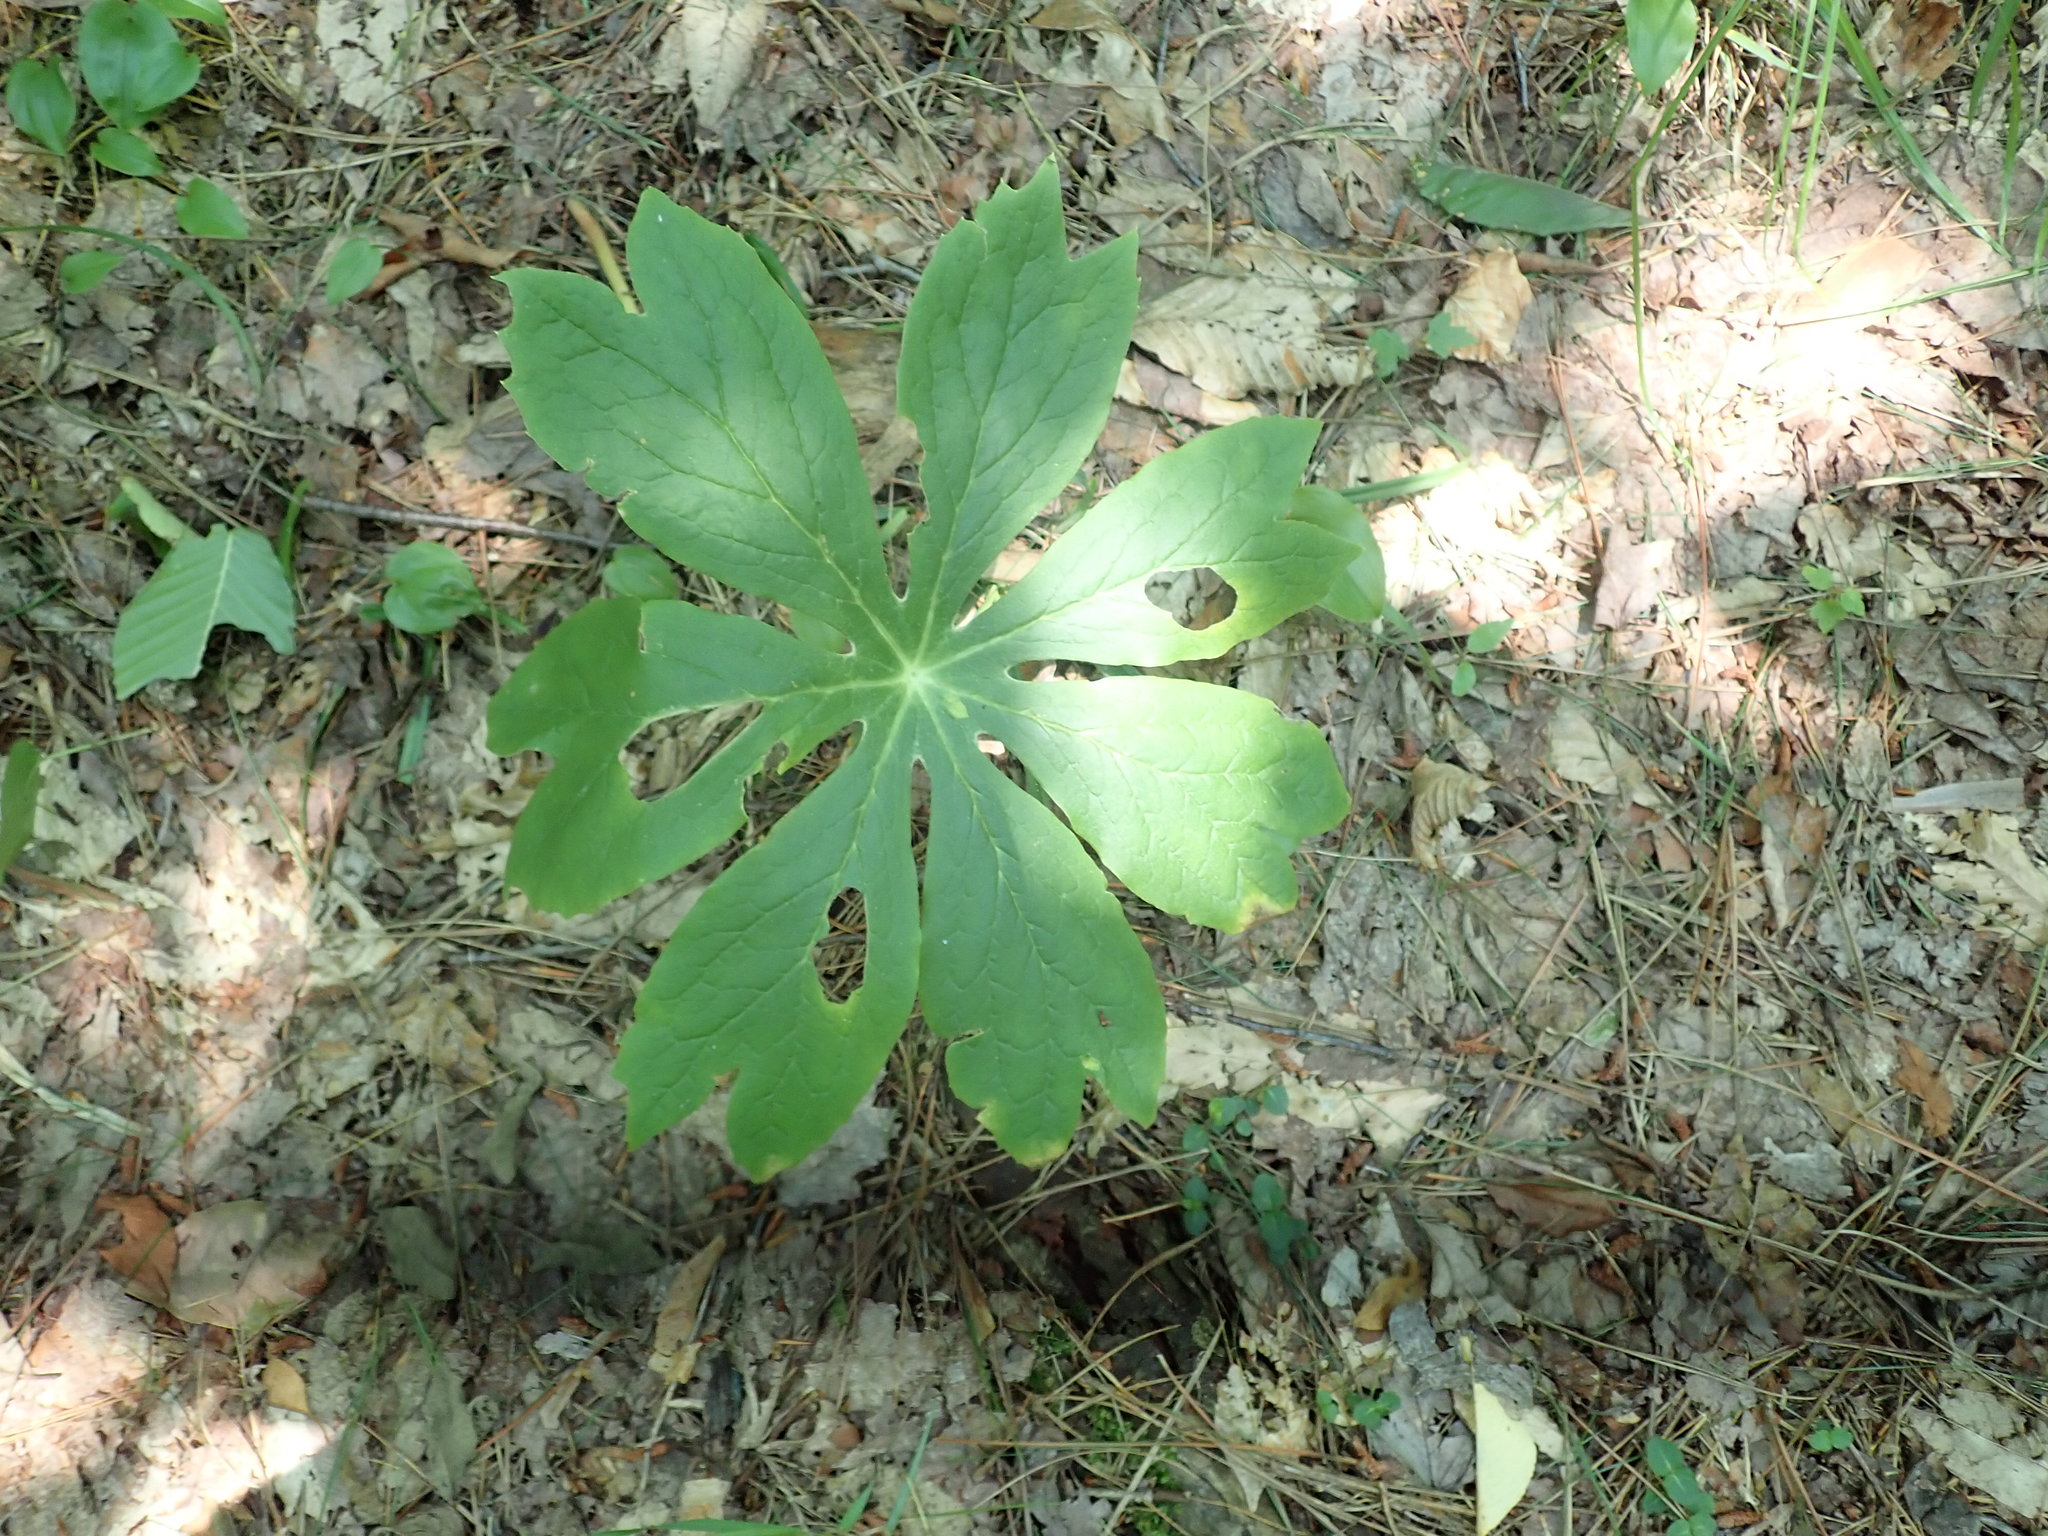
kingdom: Plantae
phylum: Tracheophyta
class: Magnoliopsida
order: Ranunculales
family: Berberidaceae
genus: Podophyllum
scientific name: Podophyllum peltatum
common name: Wild mandrake
